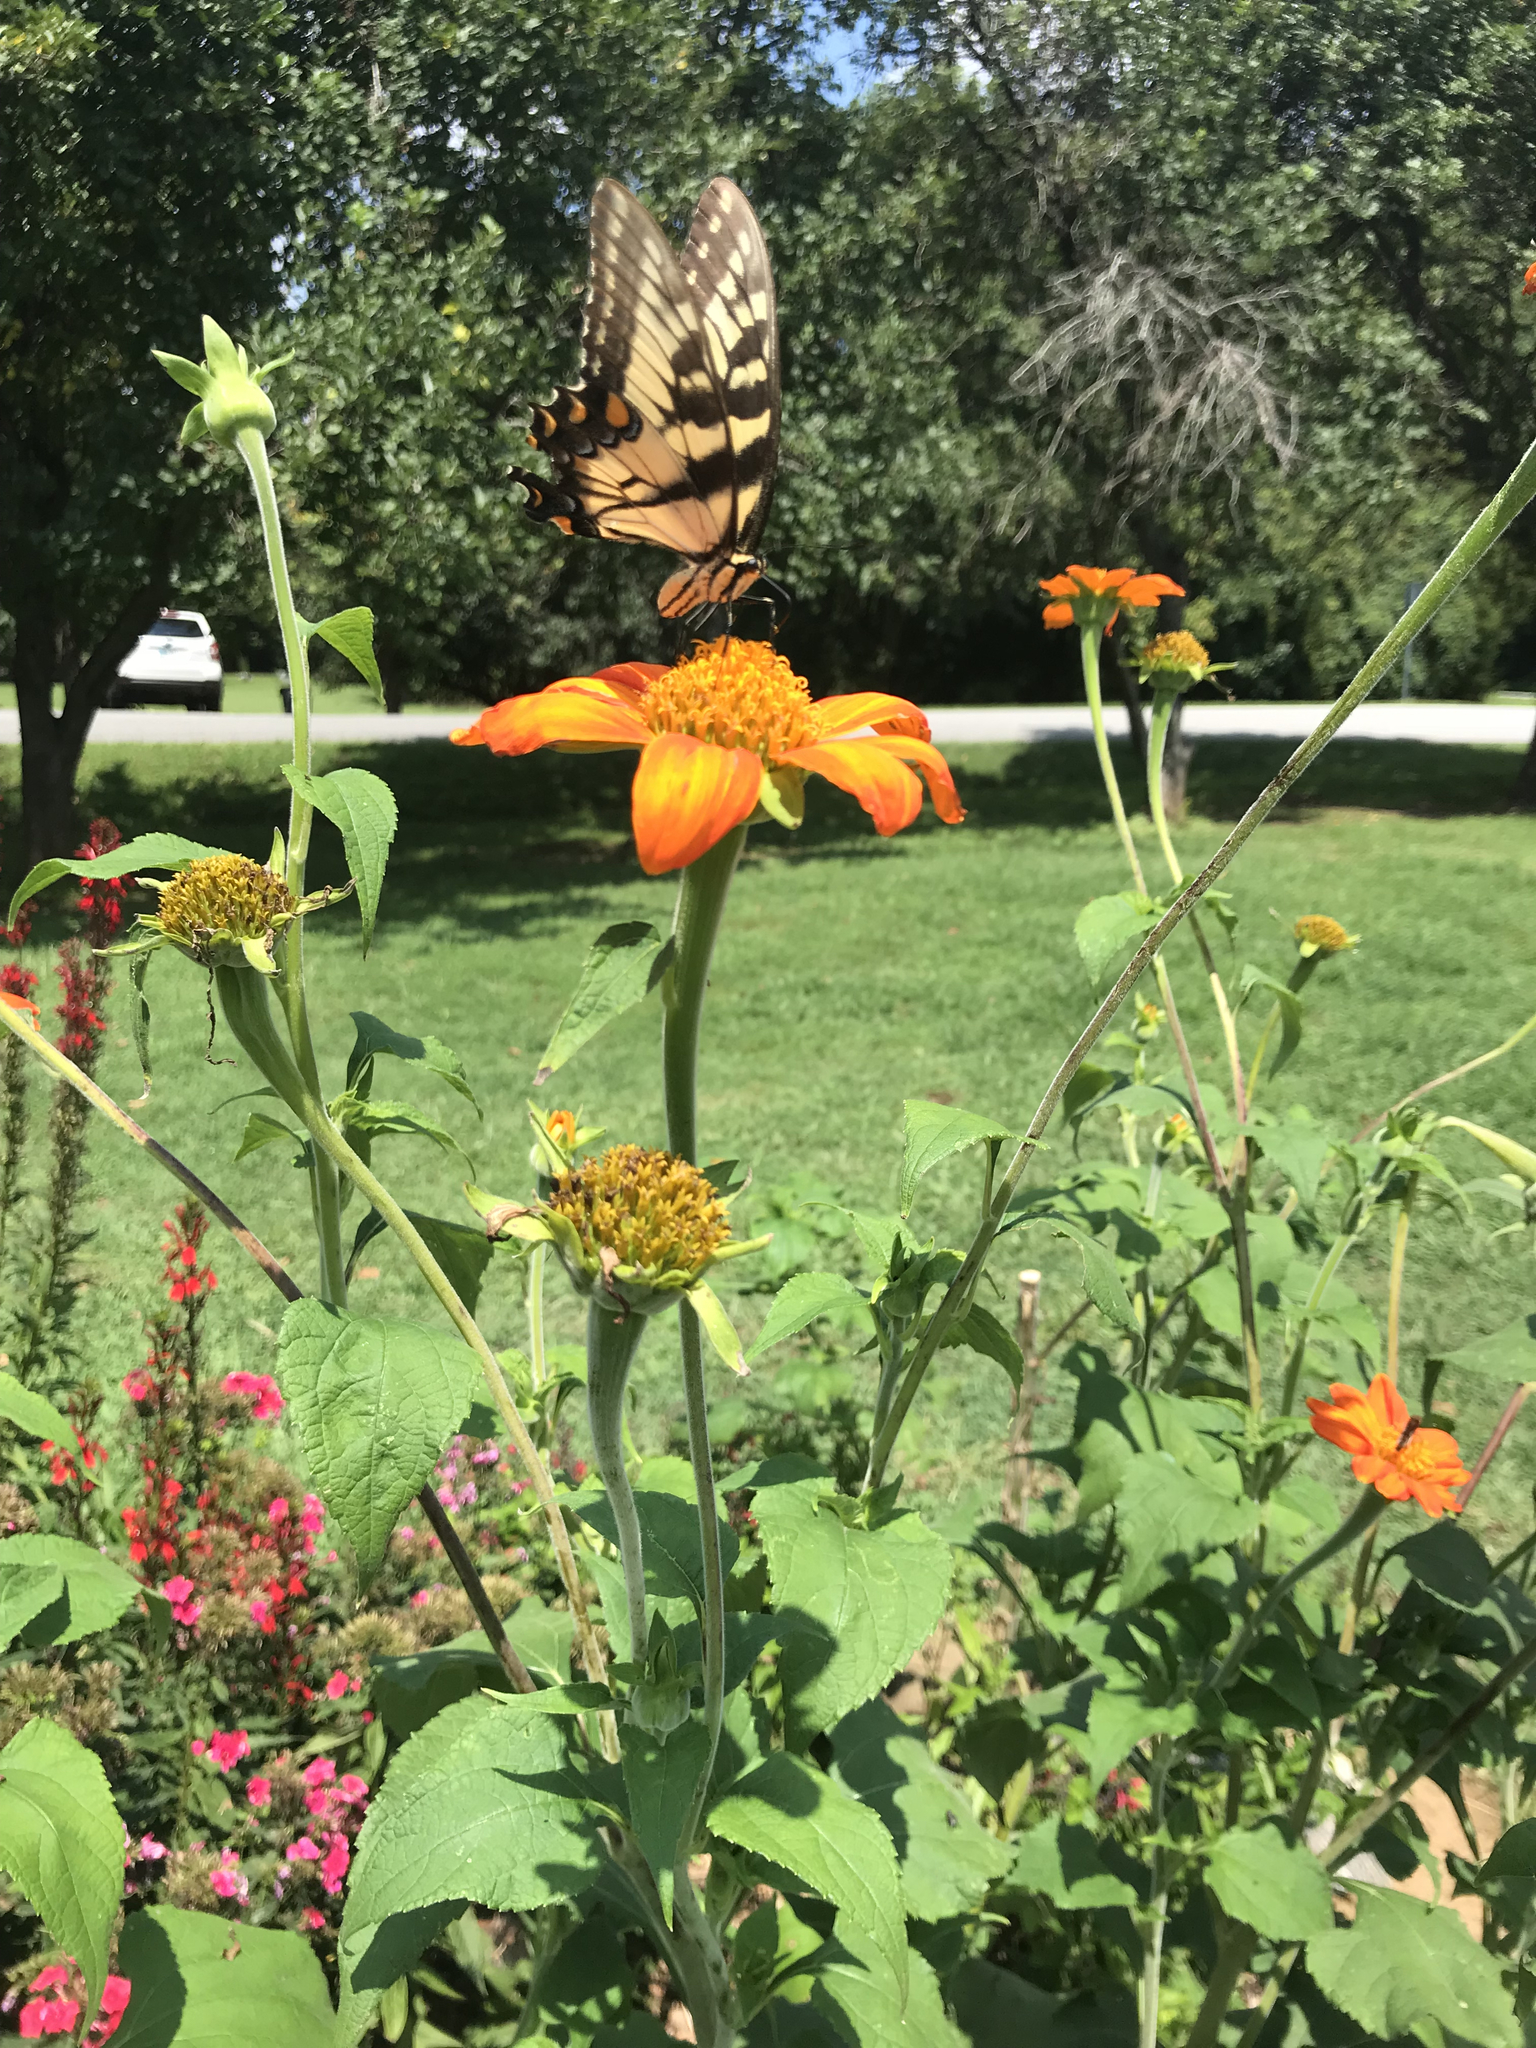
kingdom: Animalia
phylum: Arthropoda
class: Insecta
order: Lepidoptera
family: Papilionidae
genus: Papilio
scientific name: Papilio glaucus
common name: Tiger swallowtail
